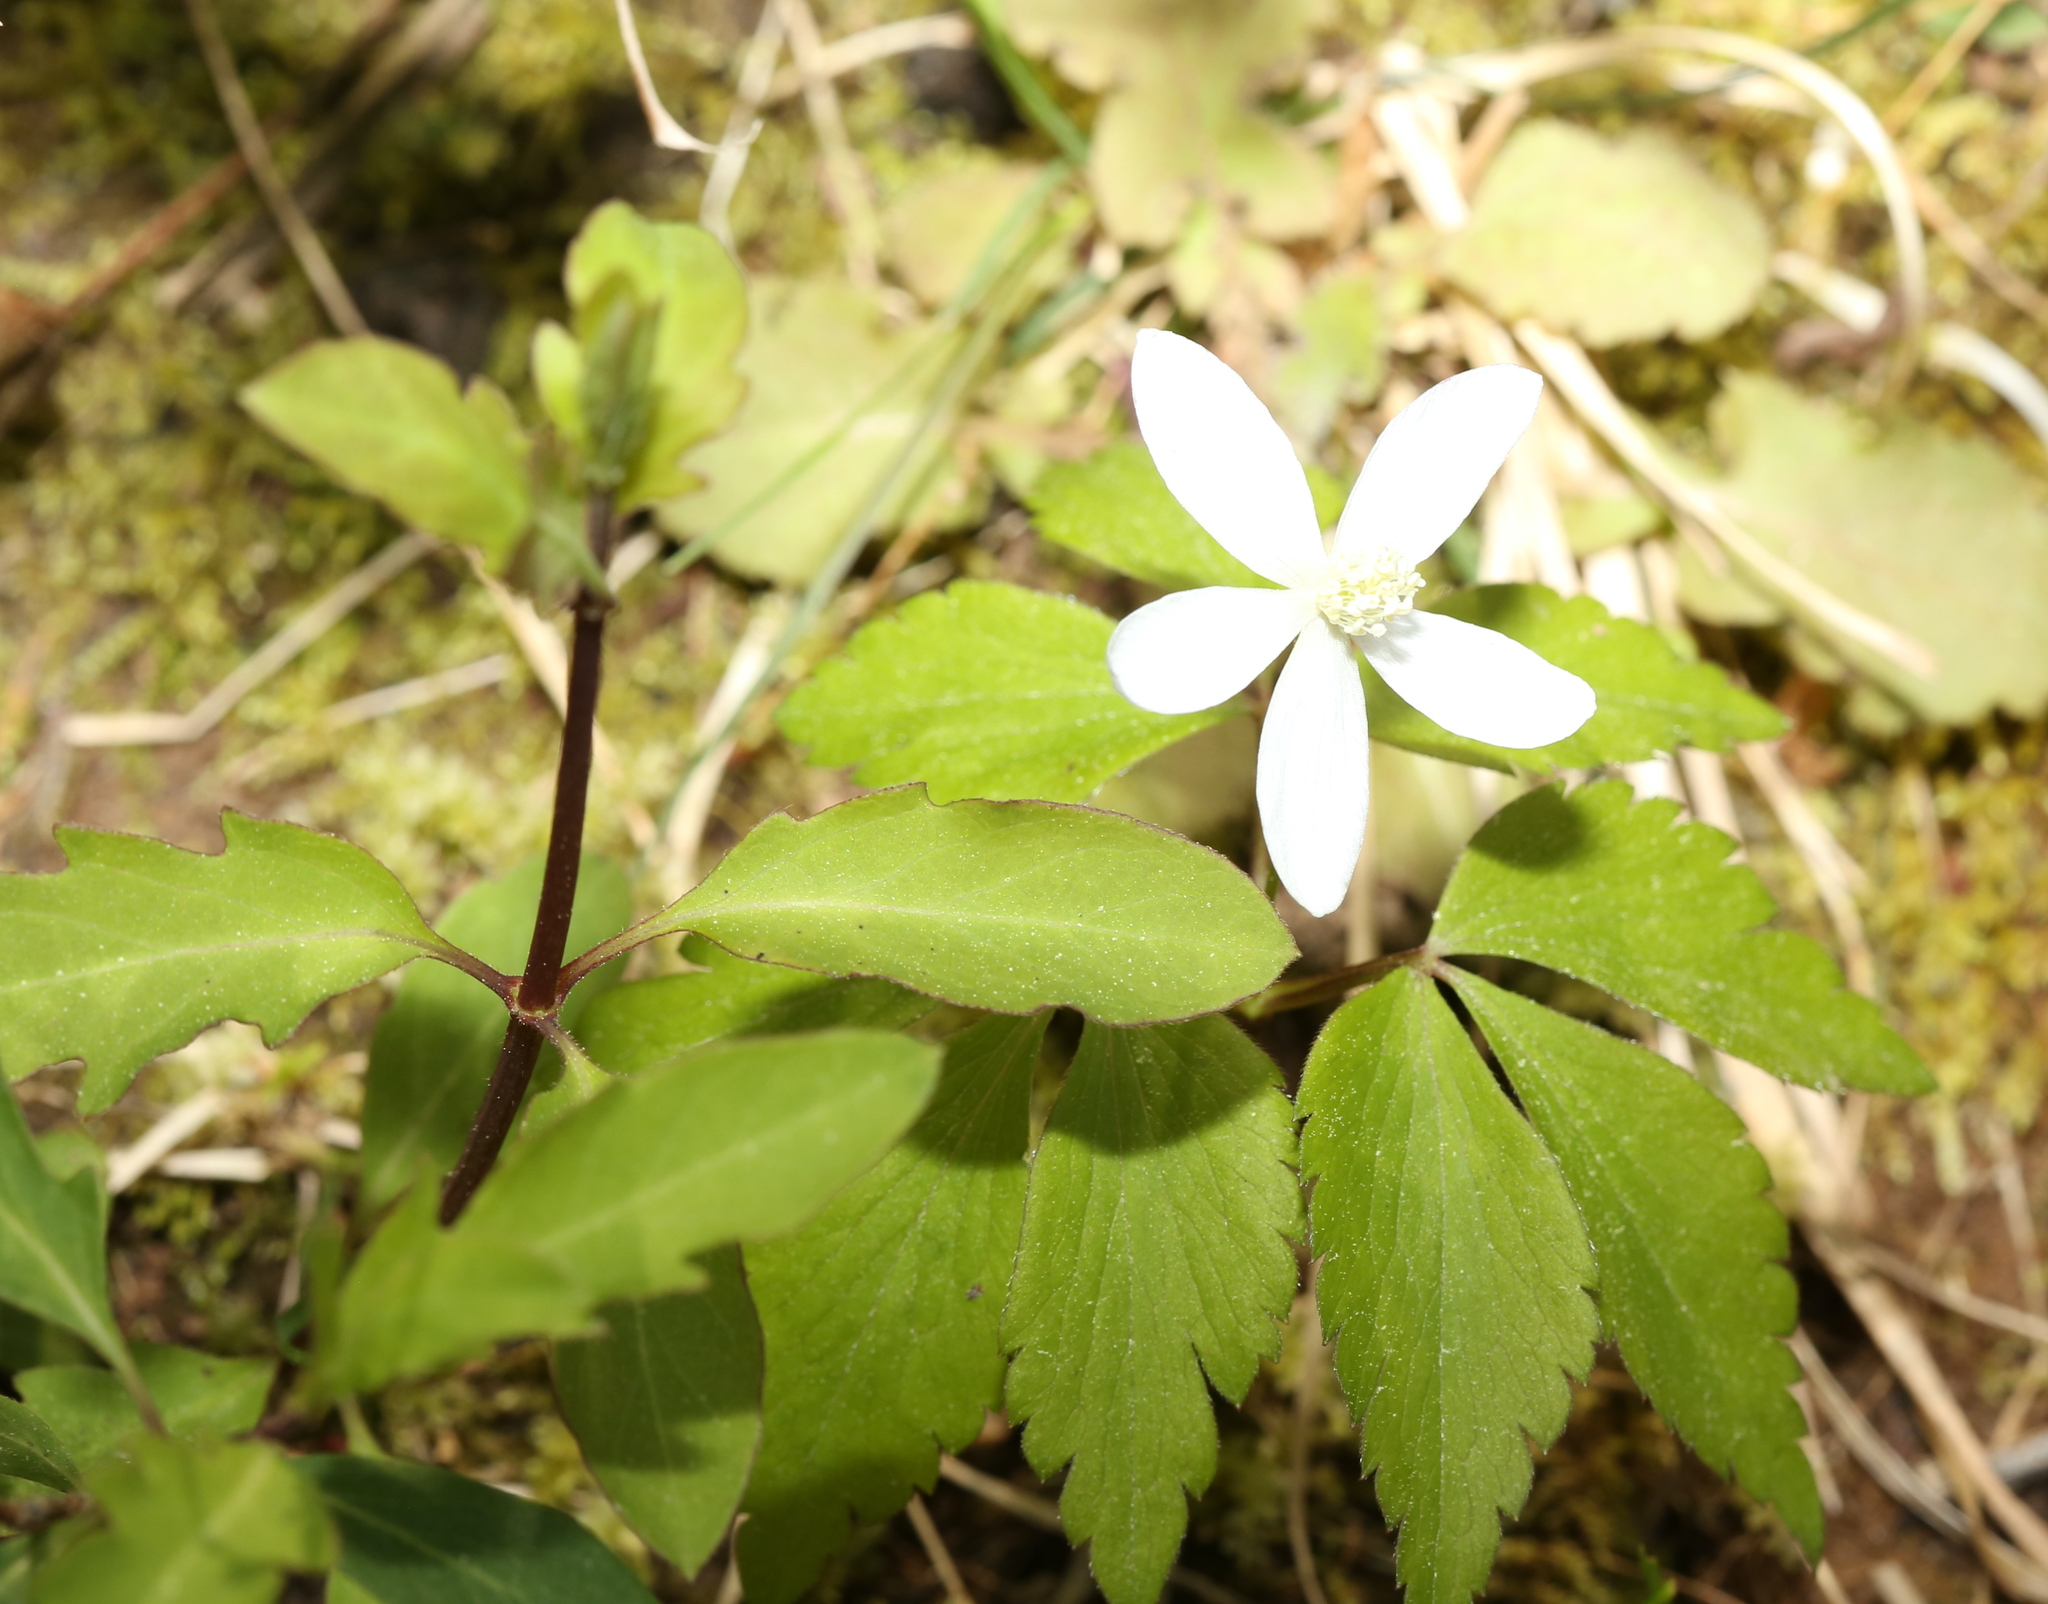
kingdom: Plantae
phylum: Tracheophyta
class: Magnoliopsida
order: Ranunculales
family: Ranunculaceae
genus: Anemone
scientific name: Anemone lancifolia
